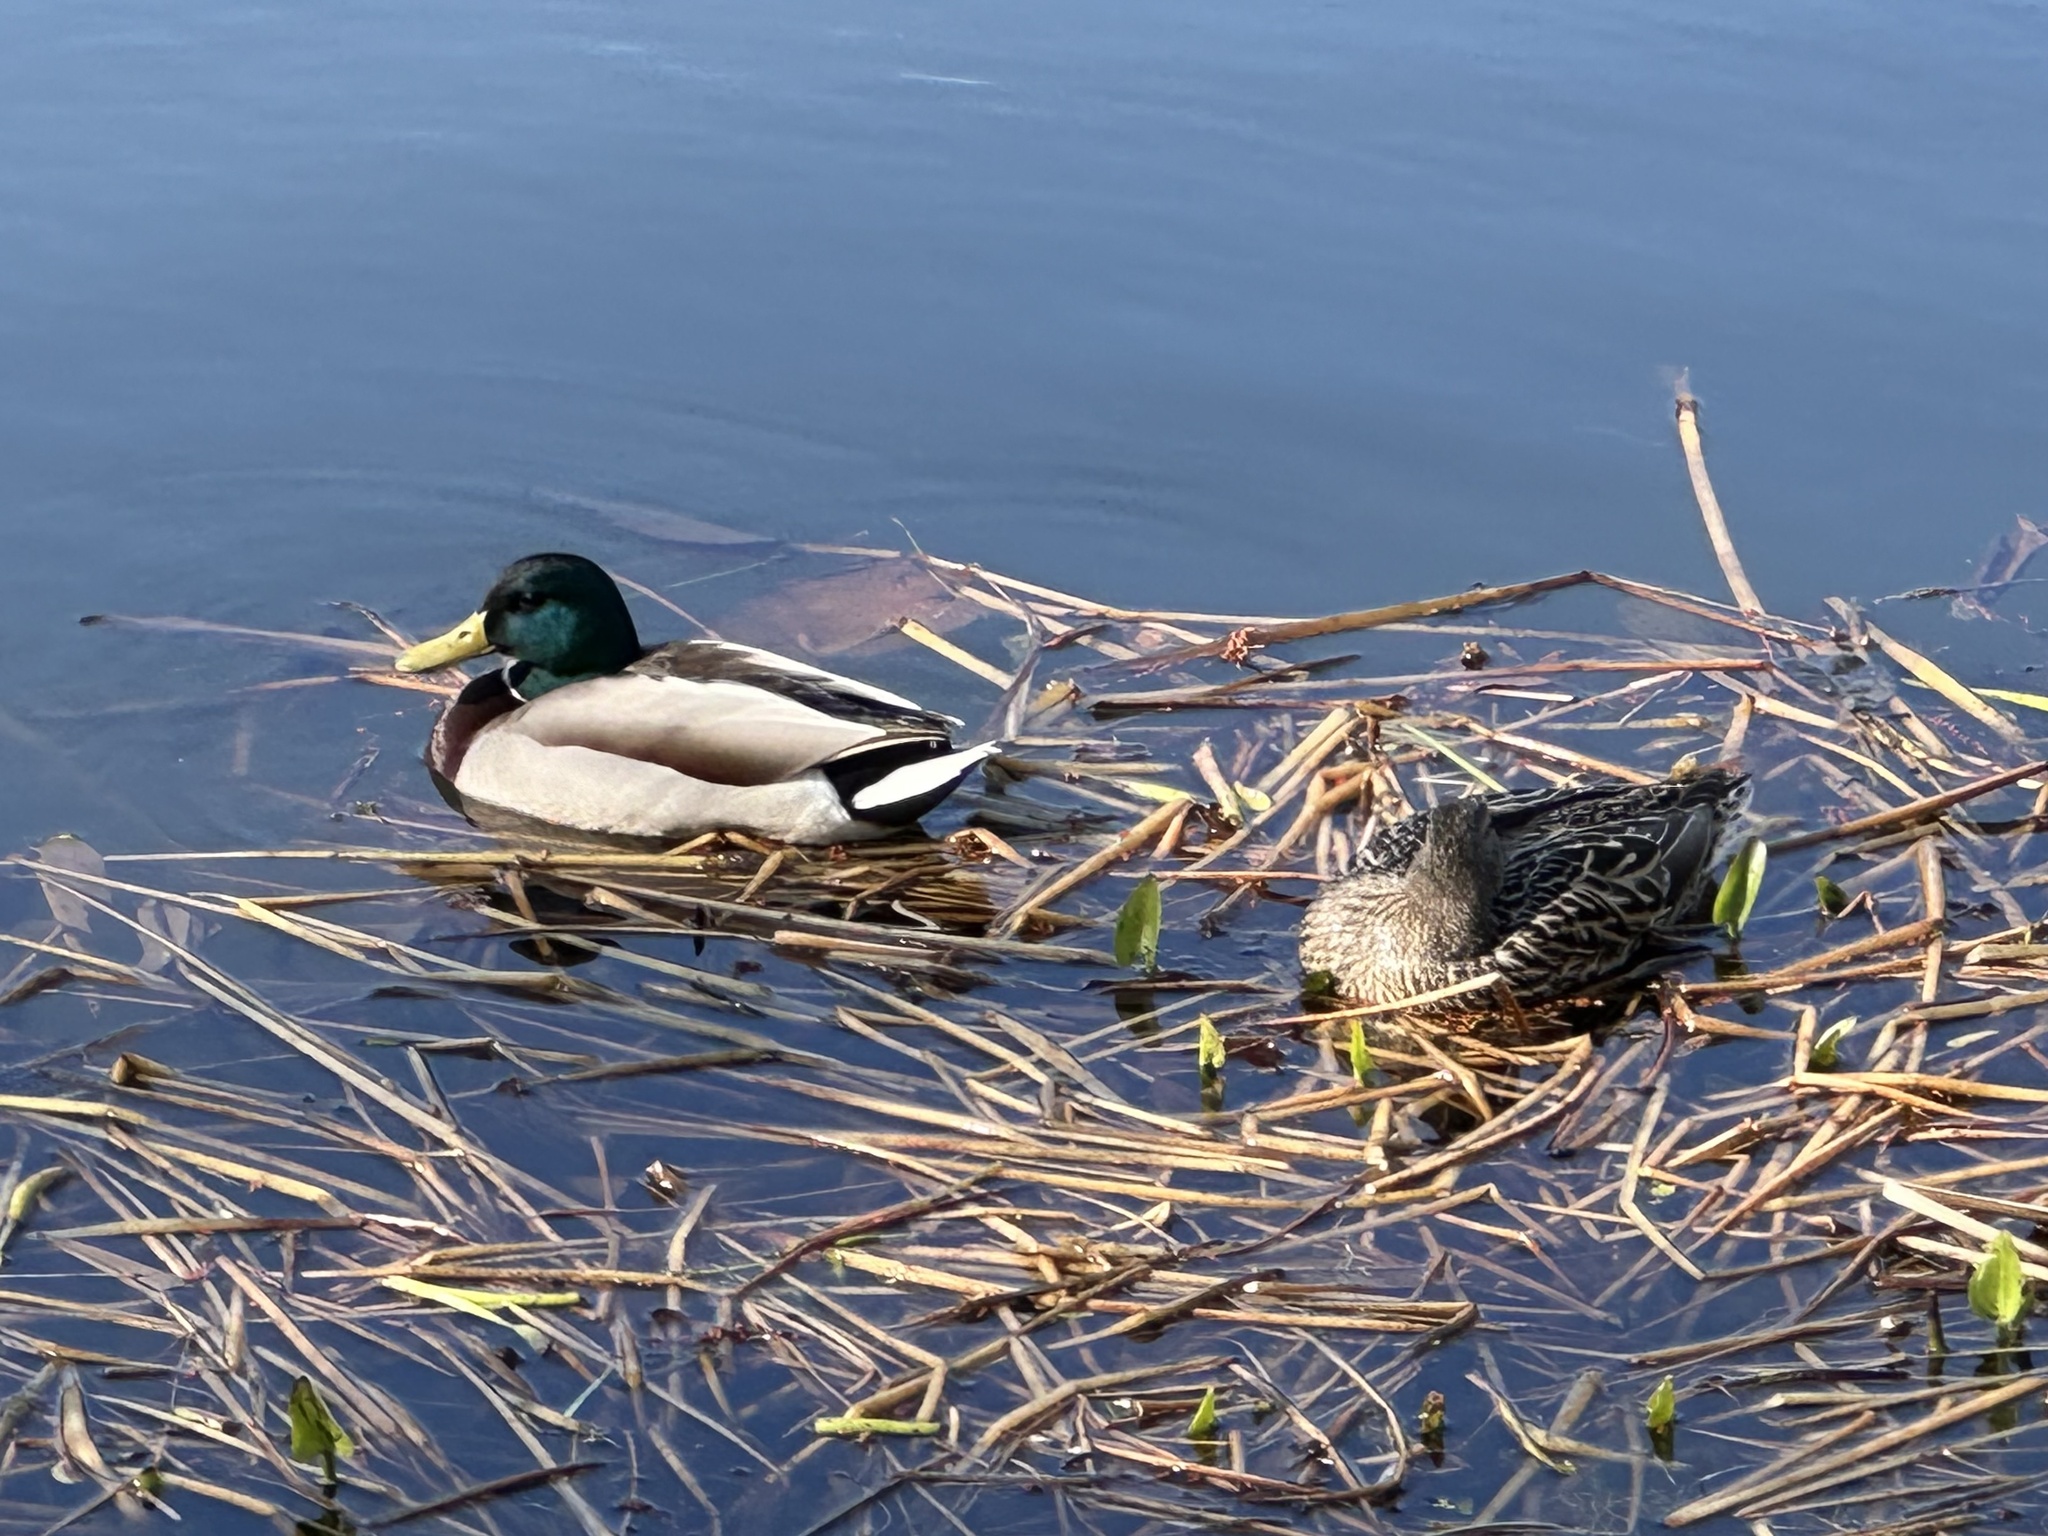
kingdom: Animalia
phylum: Chordata
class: Aves
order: Anseriformes
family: Anatidae
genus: Anas
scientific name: Anas platyrhynchos
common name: Mallard
